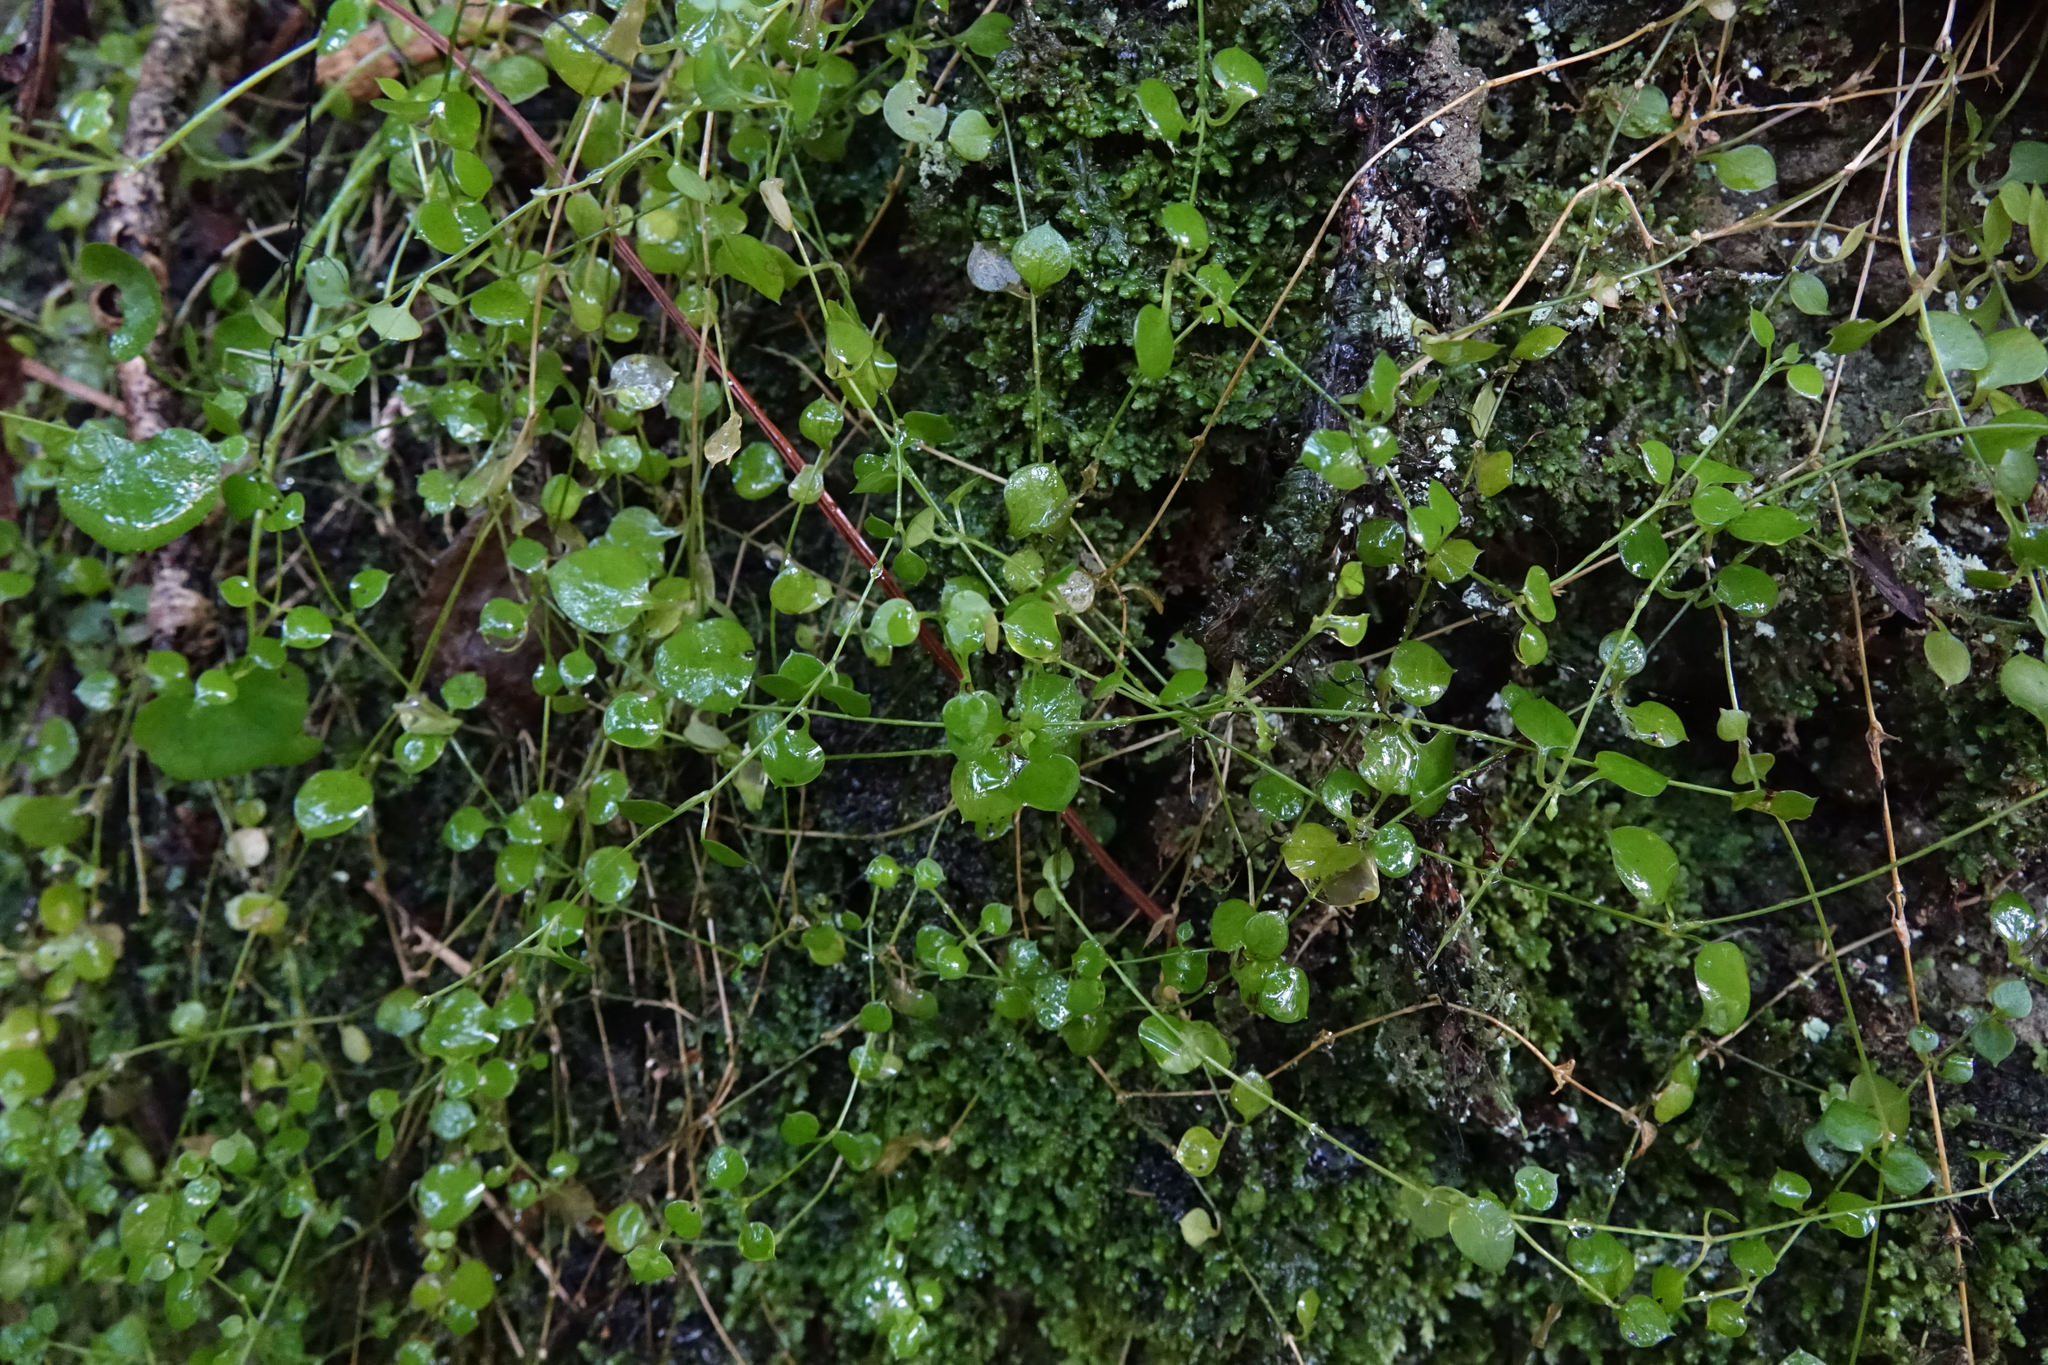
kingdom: Plantae
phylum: Tracheophyta
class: Magnoliopsida
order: Caryophyllales
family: Caryophyllaceae
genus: Stellaria
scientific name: Stellaria parviflora
